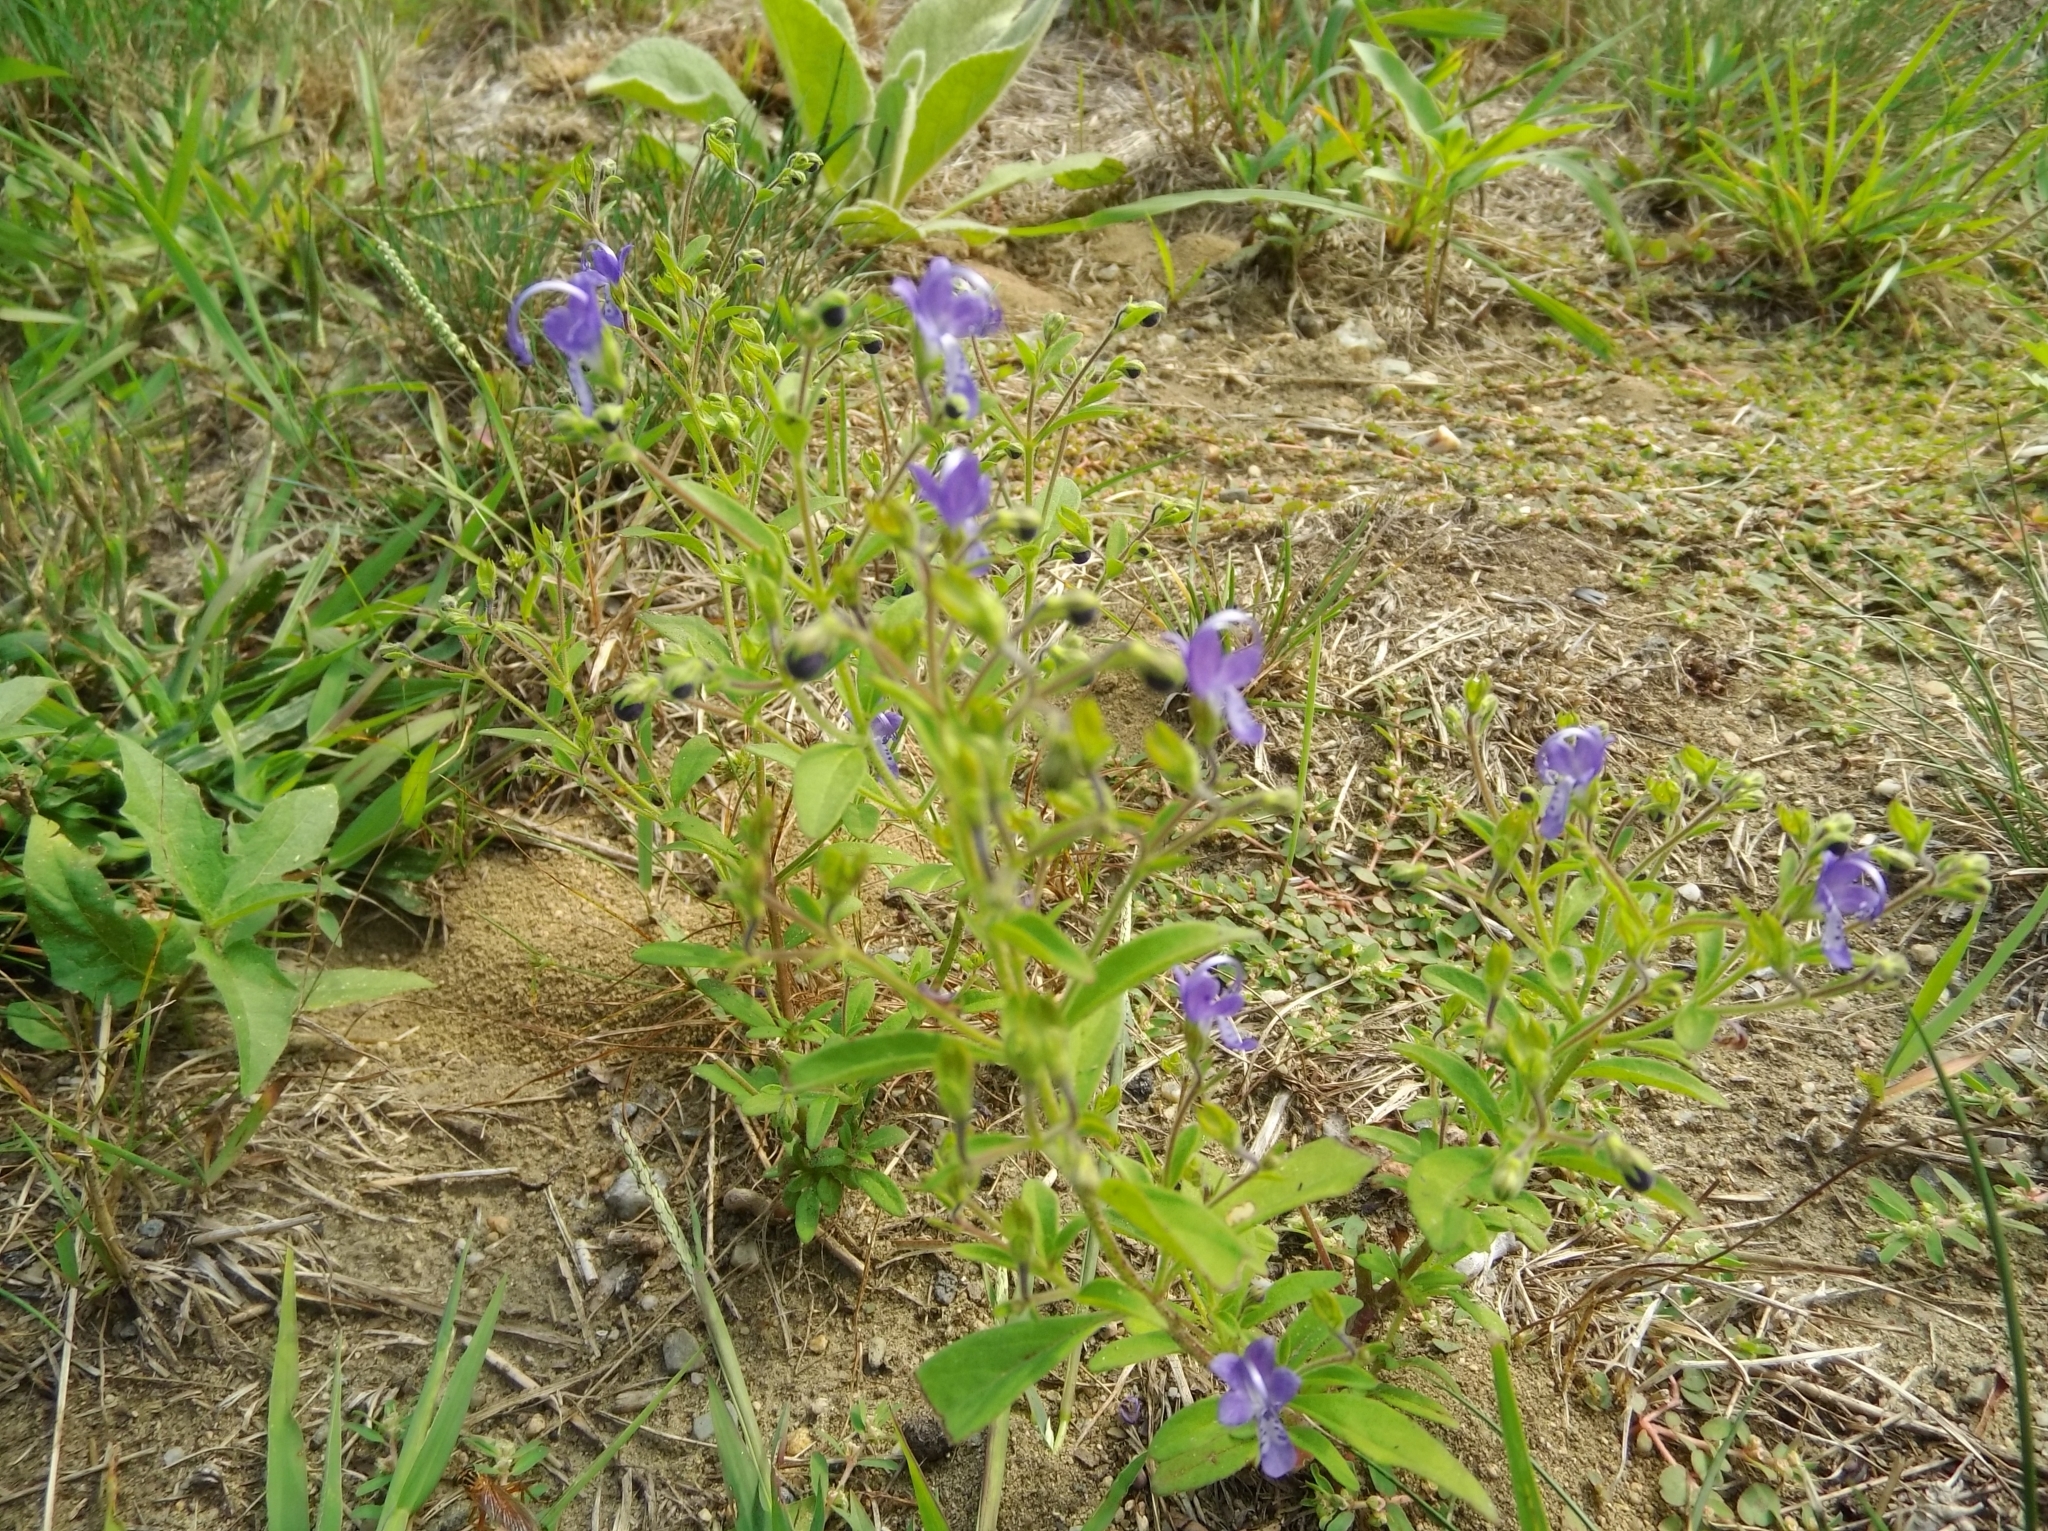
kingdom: Plantae
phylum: Tracheophyta
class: Magnoliopsida
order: Lamiales
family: Lamiaceae
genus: Trichostema
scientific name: Trichostema dichotomum
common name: Bastard pennyroyal
